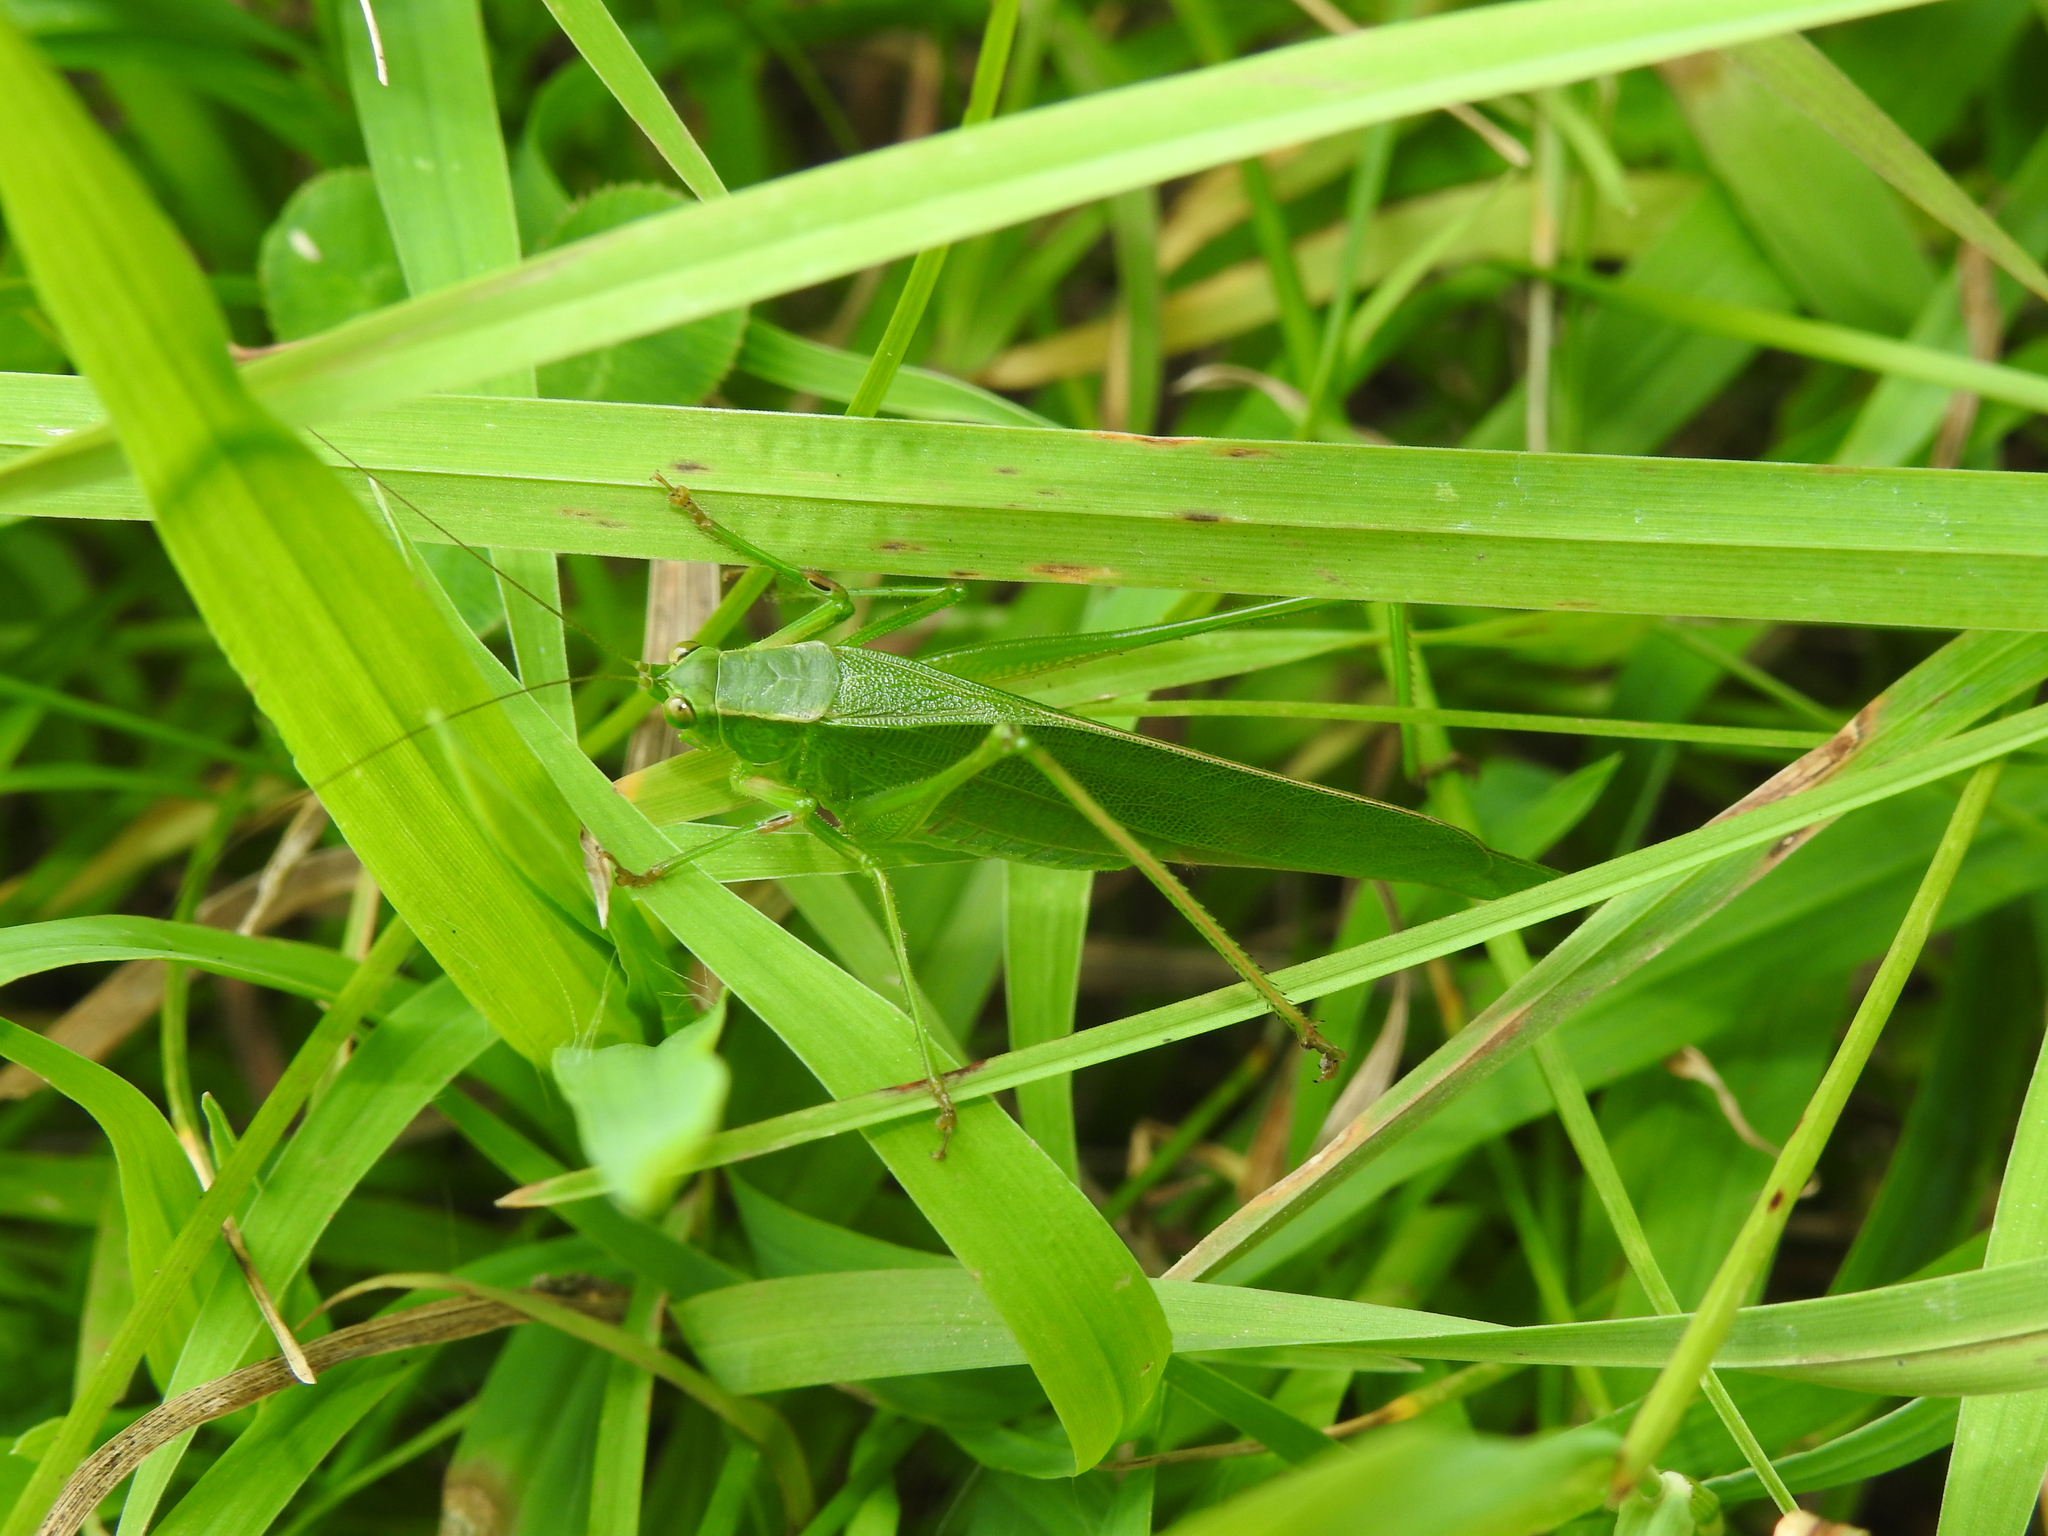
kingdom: Animalia
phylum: Arthropoda
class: Insecta
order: Orthoptera
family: Tettigoniidae
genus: Scudderia
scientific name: Scudderia furcata
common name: Fork-tailed bush katydid
